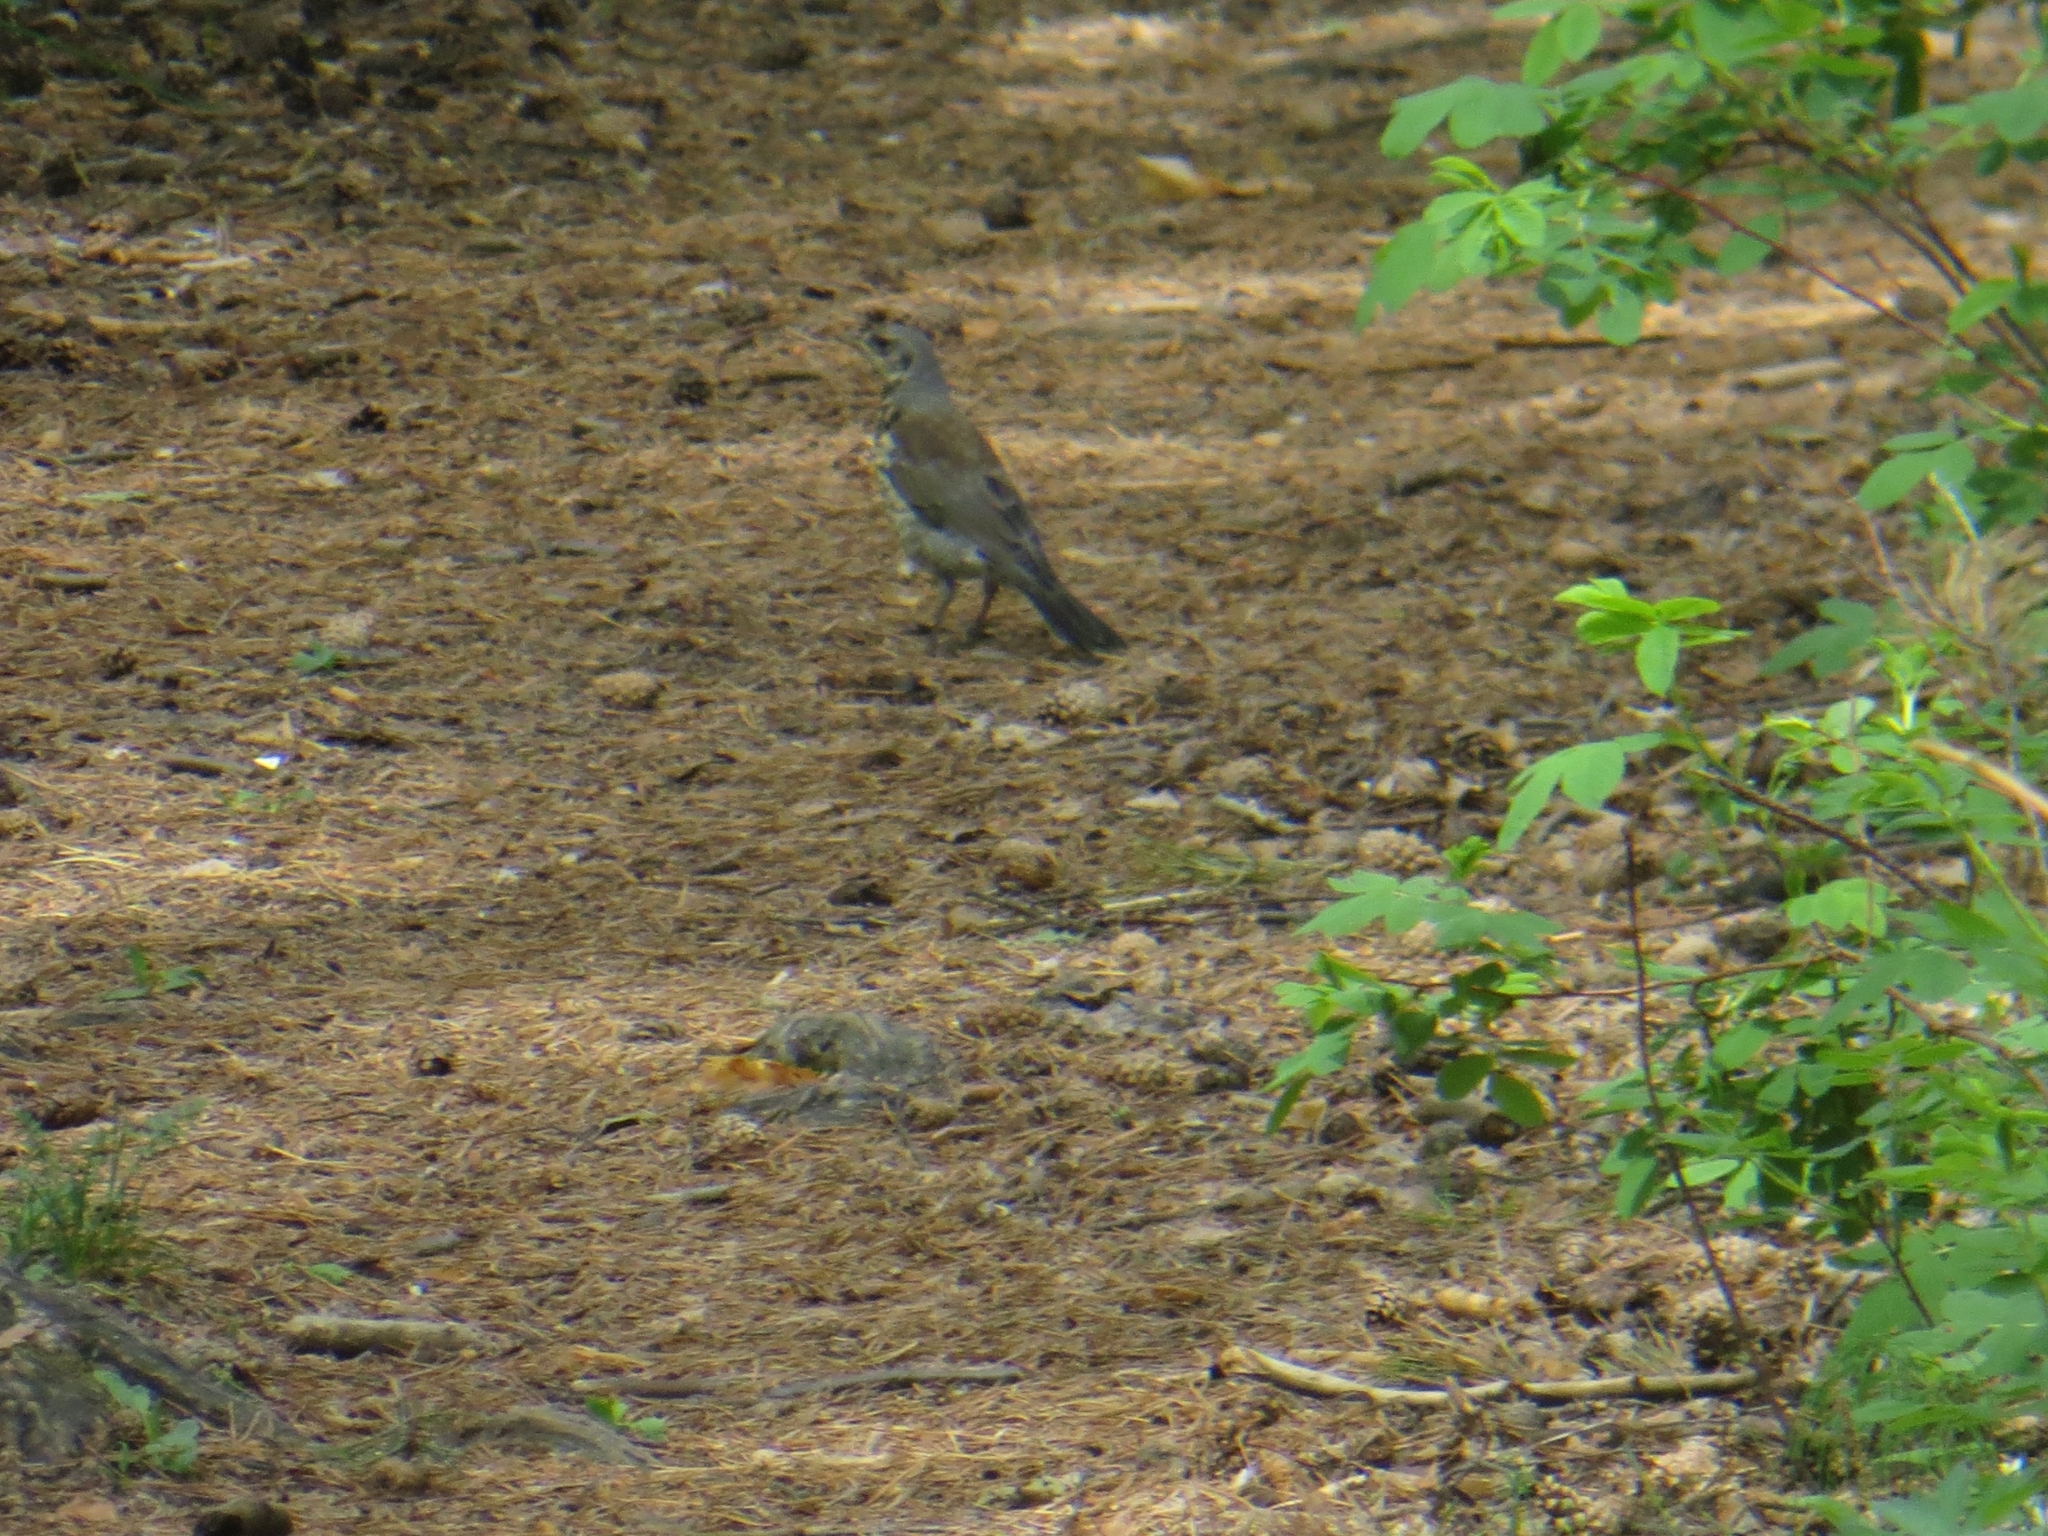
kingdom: Animalia
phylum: Chordata
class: Aves
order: Passeriformes
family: Turdidae
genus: Turdus
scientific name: Turdus pilaris
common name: Fieldfare
